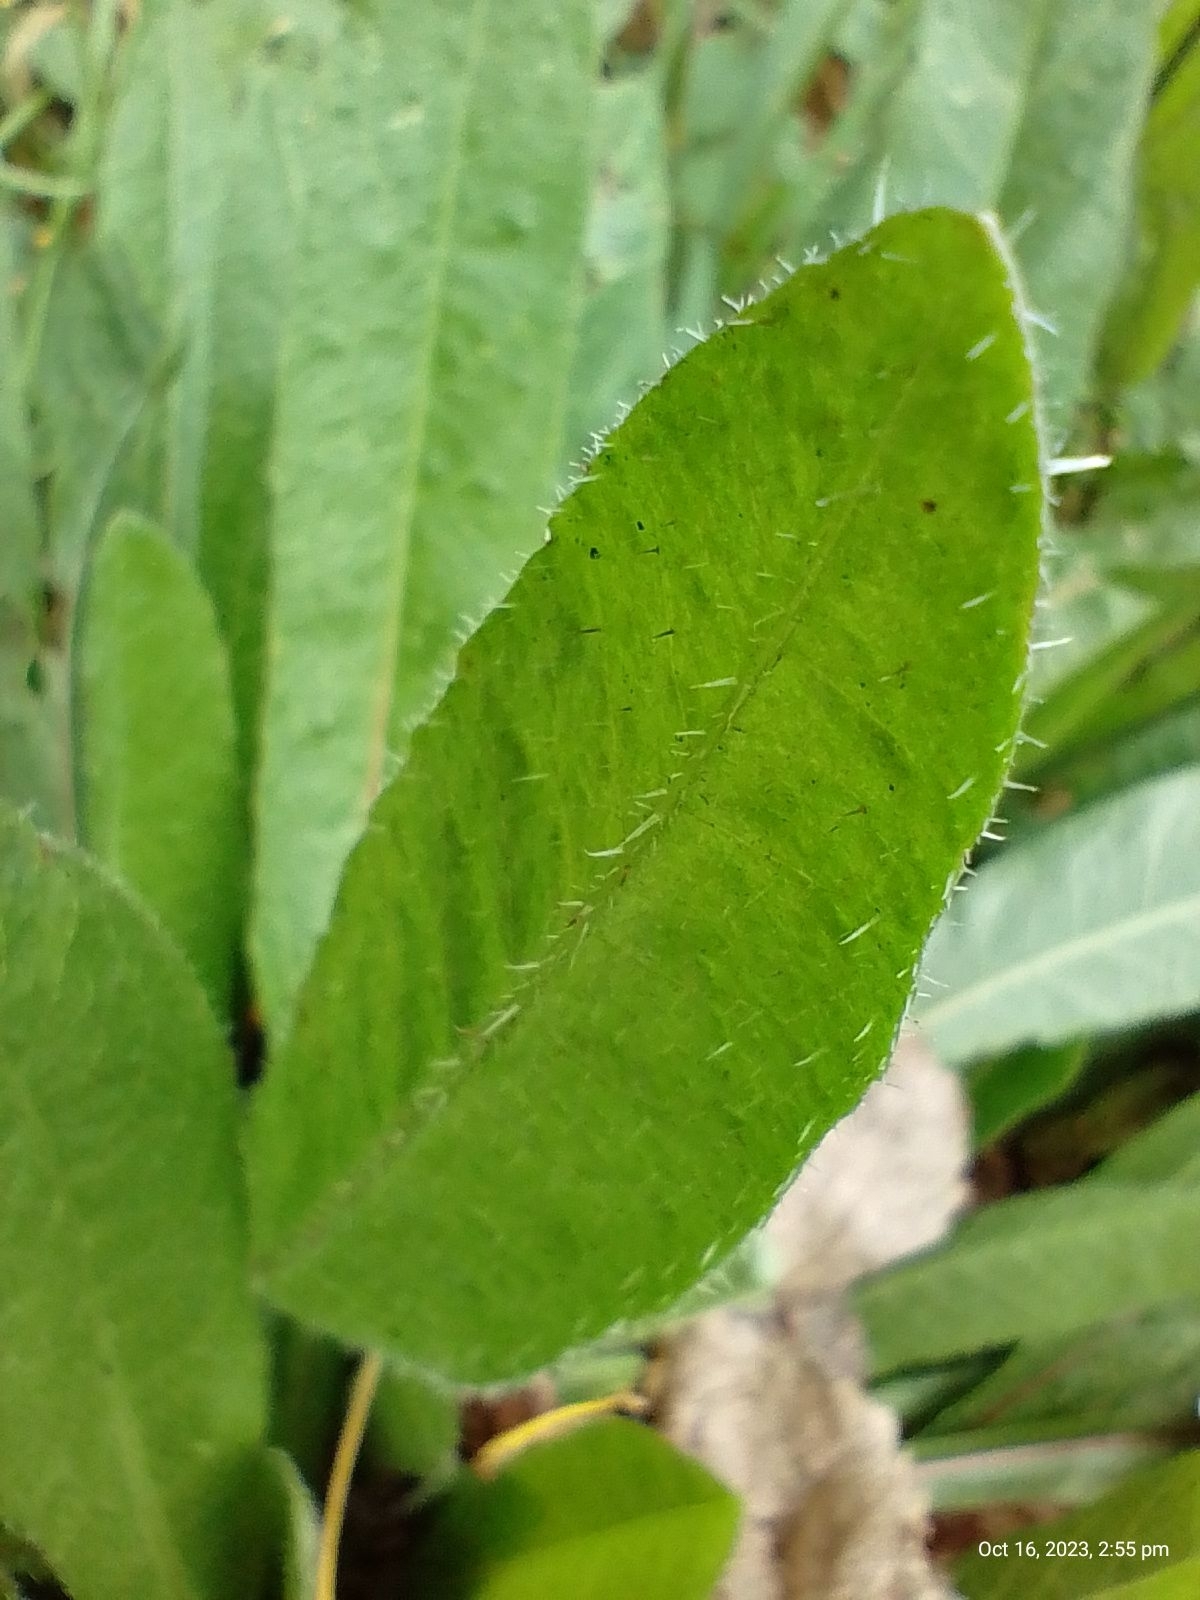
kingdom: Plantae
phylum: Tracheophyta
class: Magnoliopsida
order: Asterales
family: Asteraceae
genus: Helminthotheca
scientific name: Helminthotheca echioides
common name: Ox-tongue
